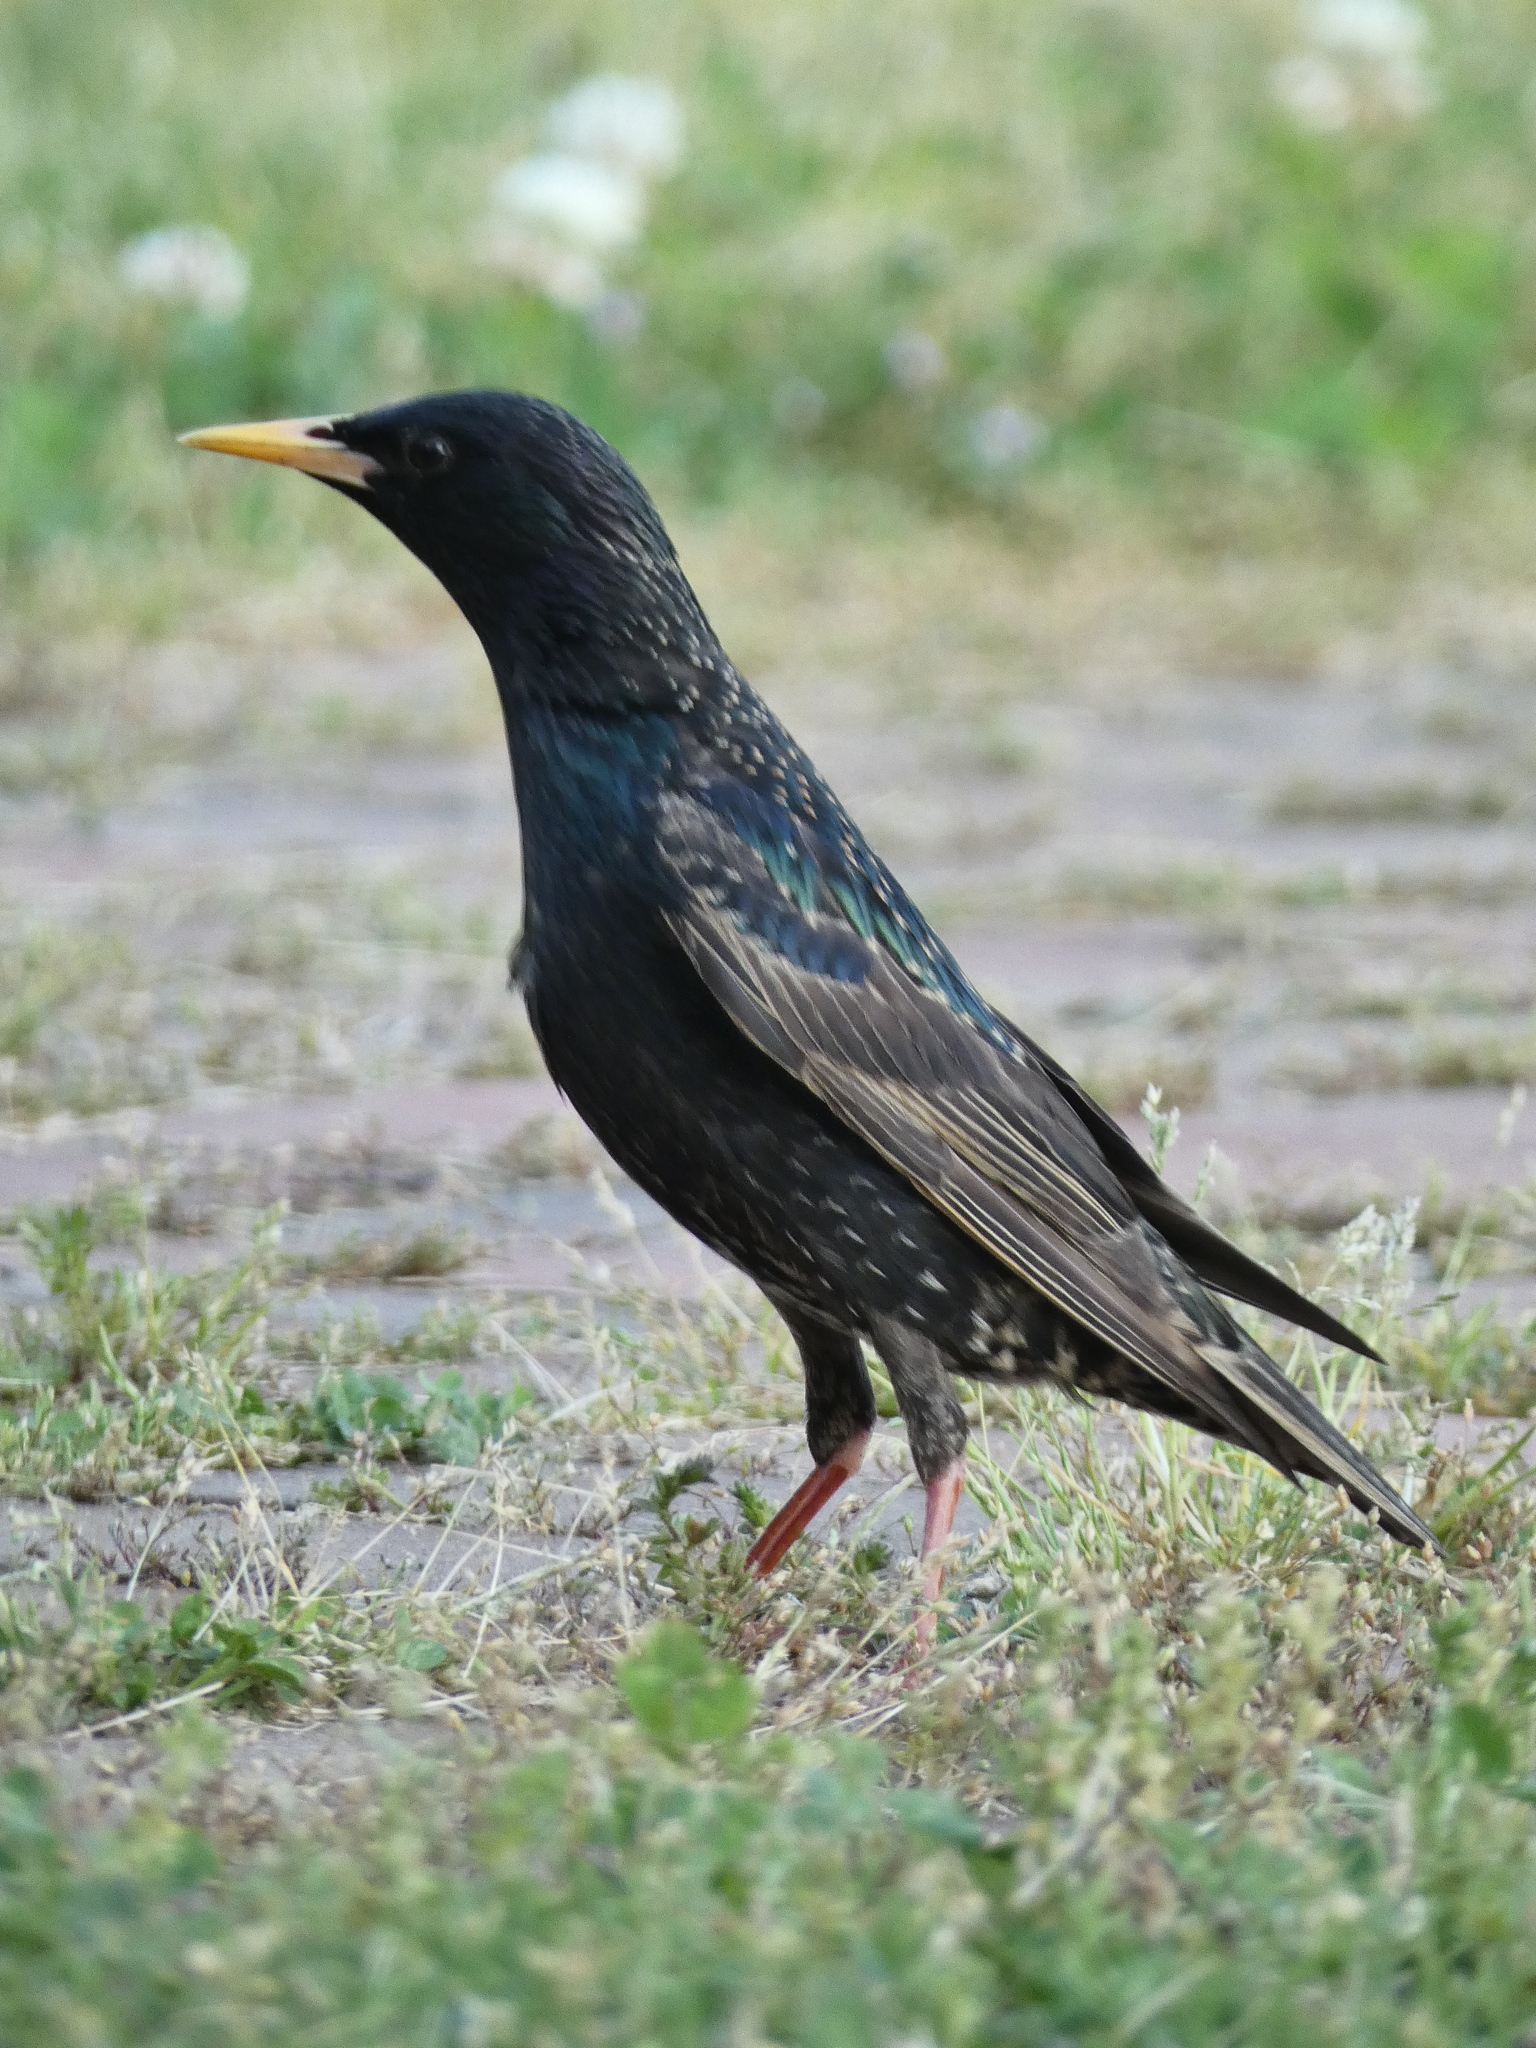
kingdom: Animalia
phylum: Chordata
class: Aves
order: Passeriformes
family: Sturnidae
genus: Sturnus
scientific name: Sturnus vulgaris
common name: Common starling
